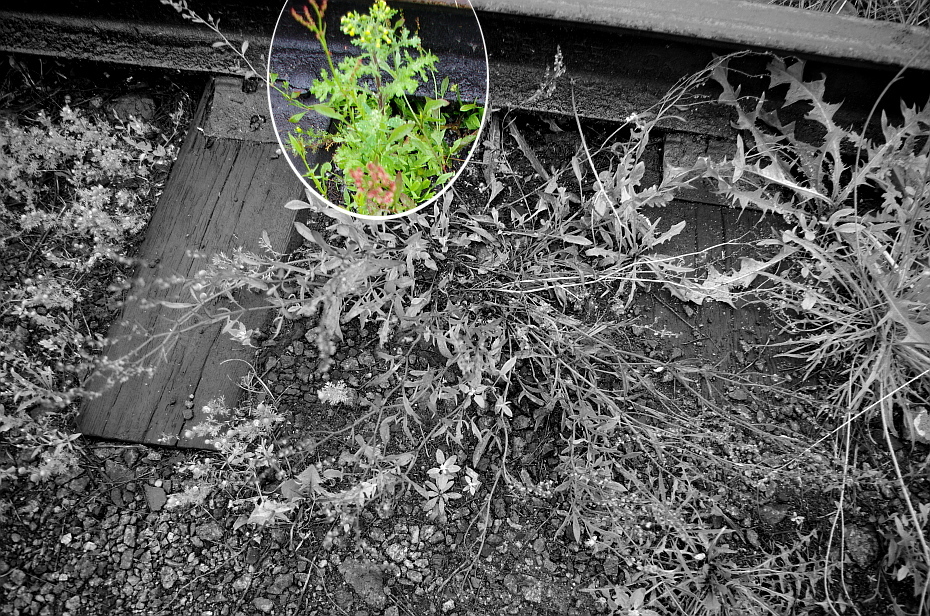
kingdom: Plantae
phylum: Tracheophyta
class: Magnoliopsida
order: Asterales
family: Asteraceae
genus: Senecio
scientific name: Senecio vulgaris
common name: Old-man-in-the-spring
